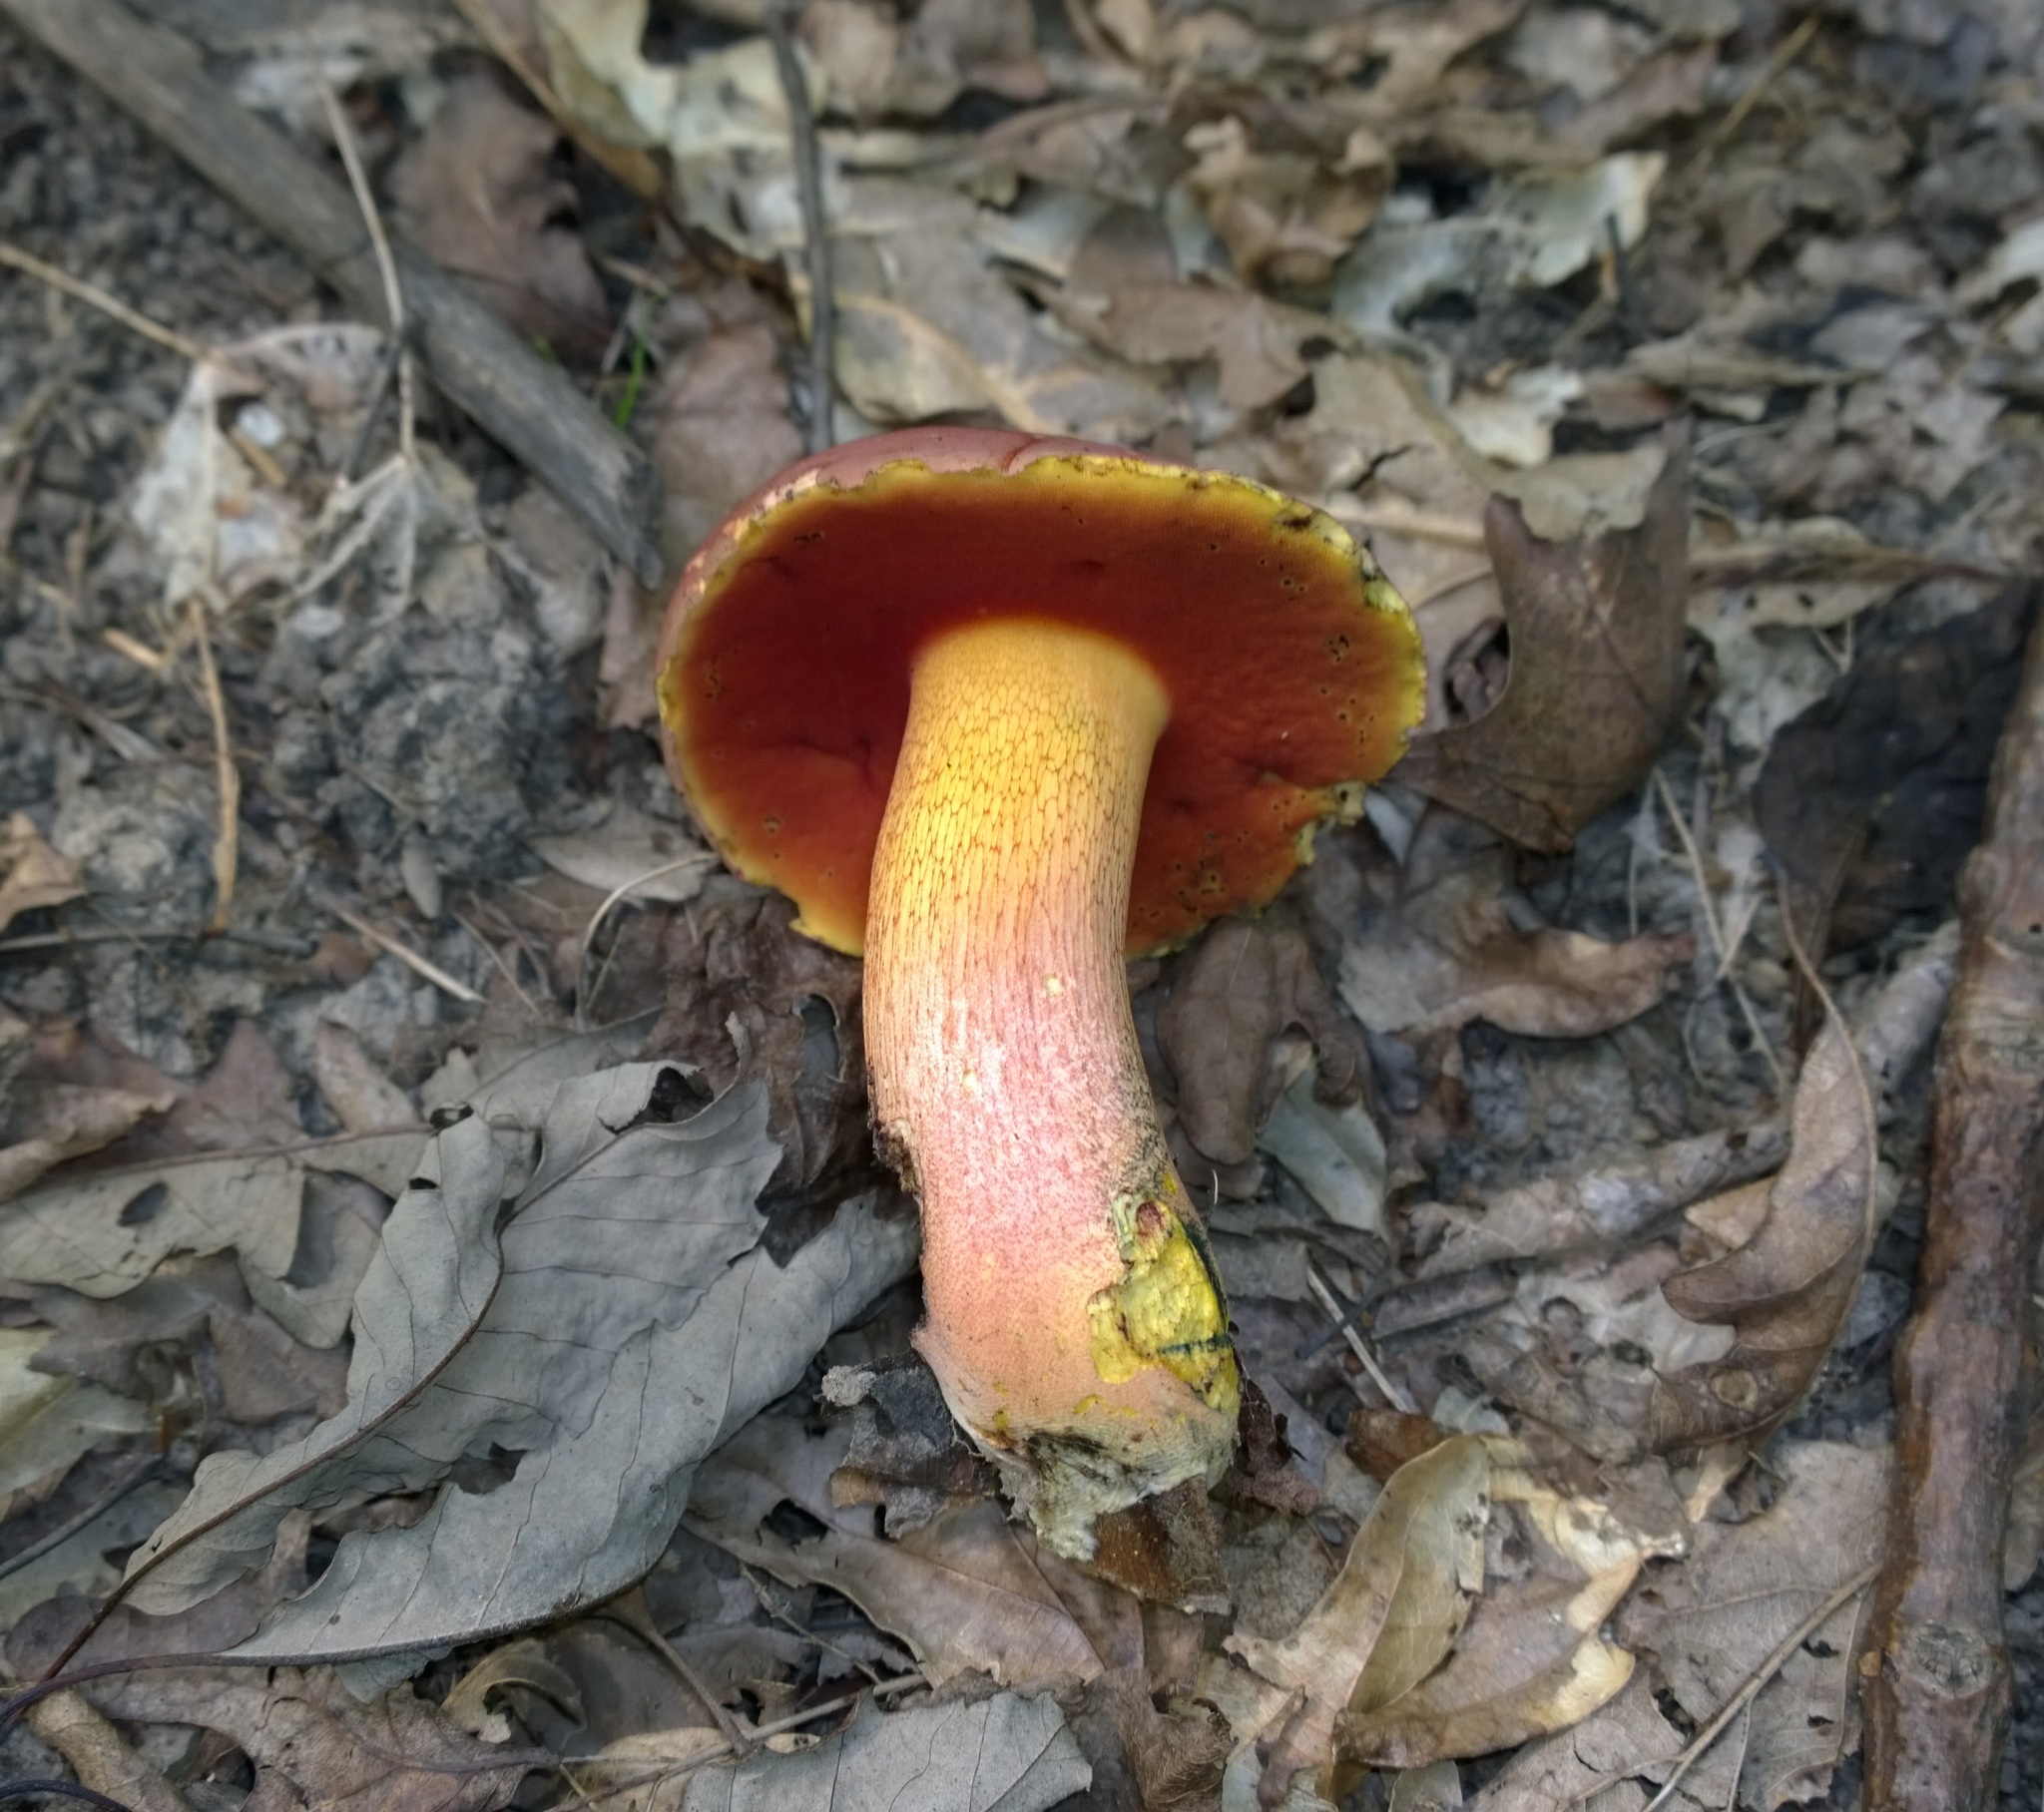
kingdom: Fungi
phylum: Basidiomycota
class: Agaricomycetes
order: Boletales
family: Boletaceae
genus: Rubroboletus
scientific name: Rubroboletus rhodosanguineus
